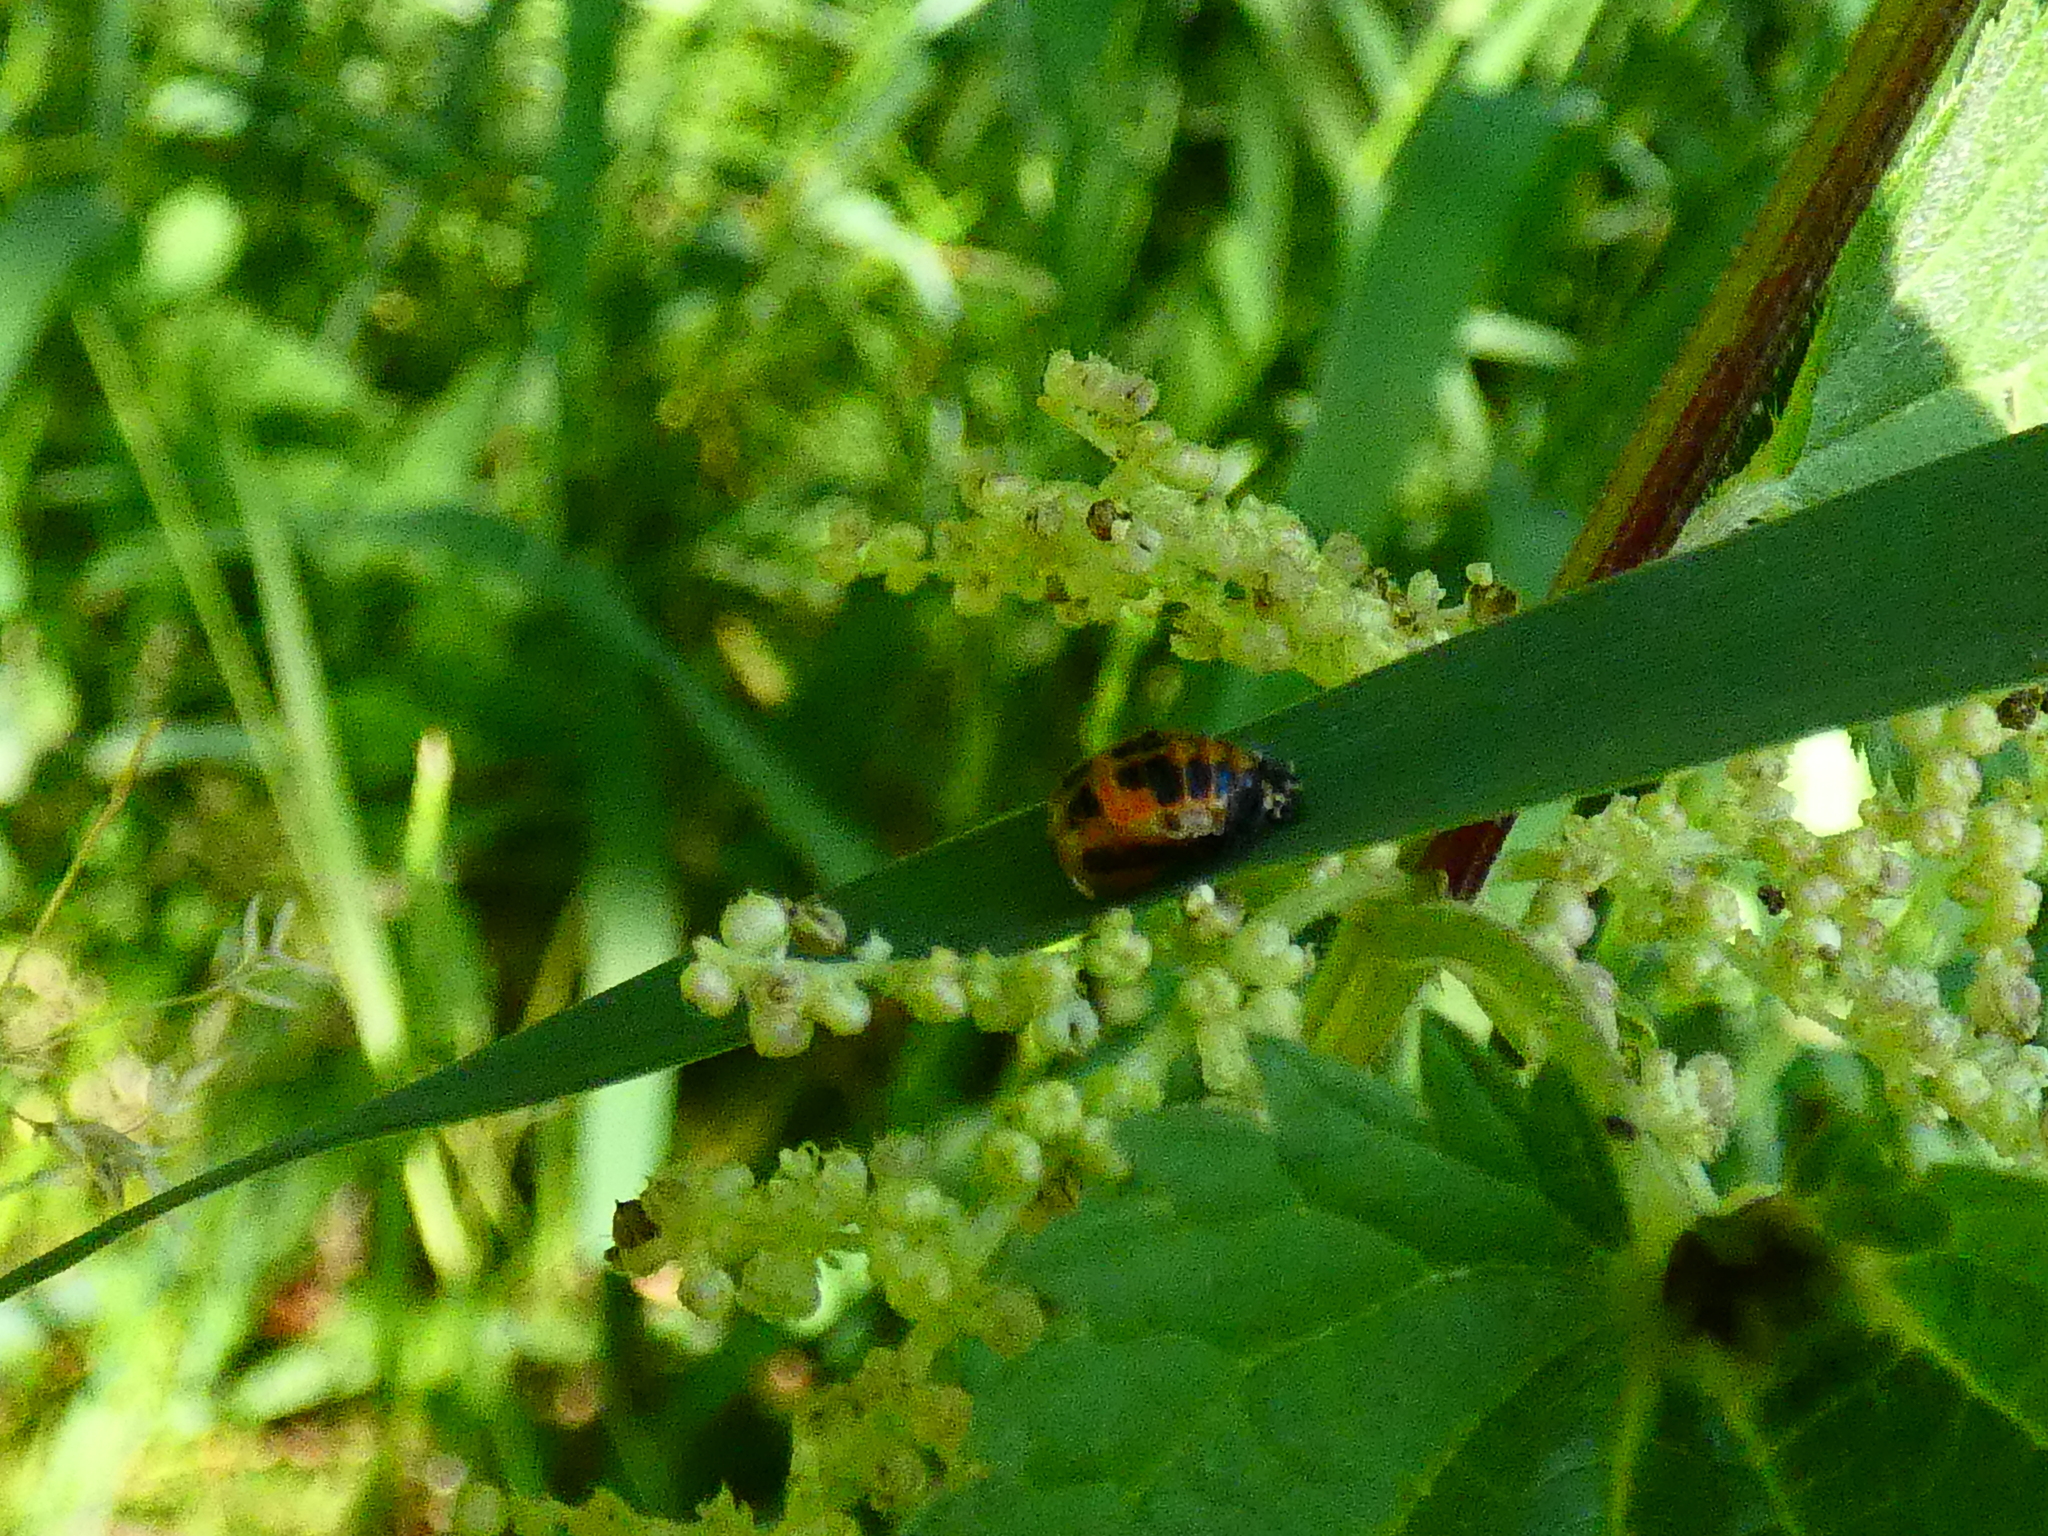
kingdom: Animalia
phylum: Arthropoda
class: Insecta
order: Coleoptera
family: Coccinellidae
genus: Harmonia
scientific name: Harmonia axyridis
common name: Harlequin ladybird
